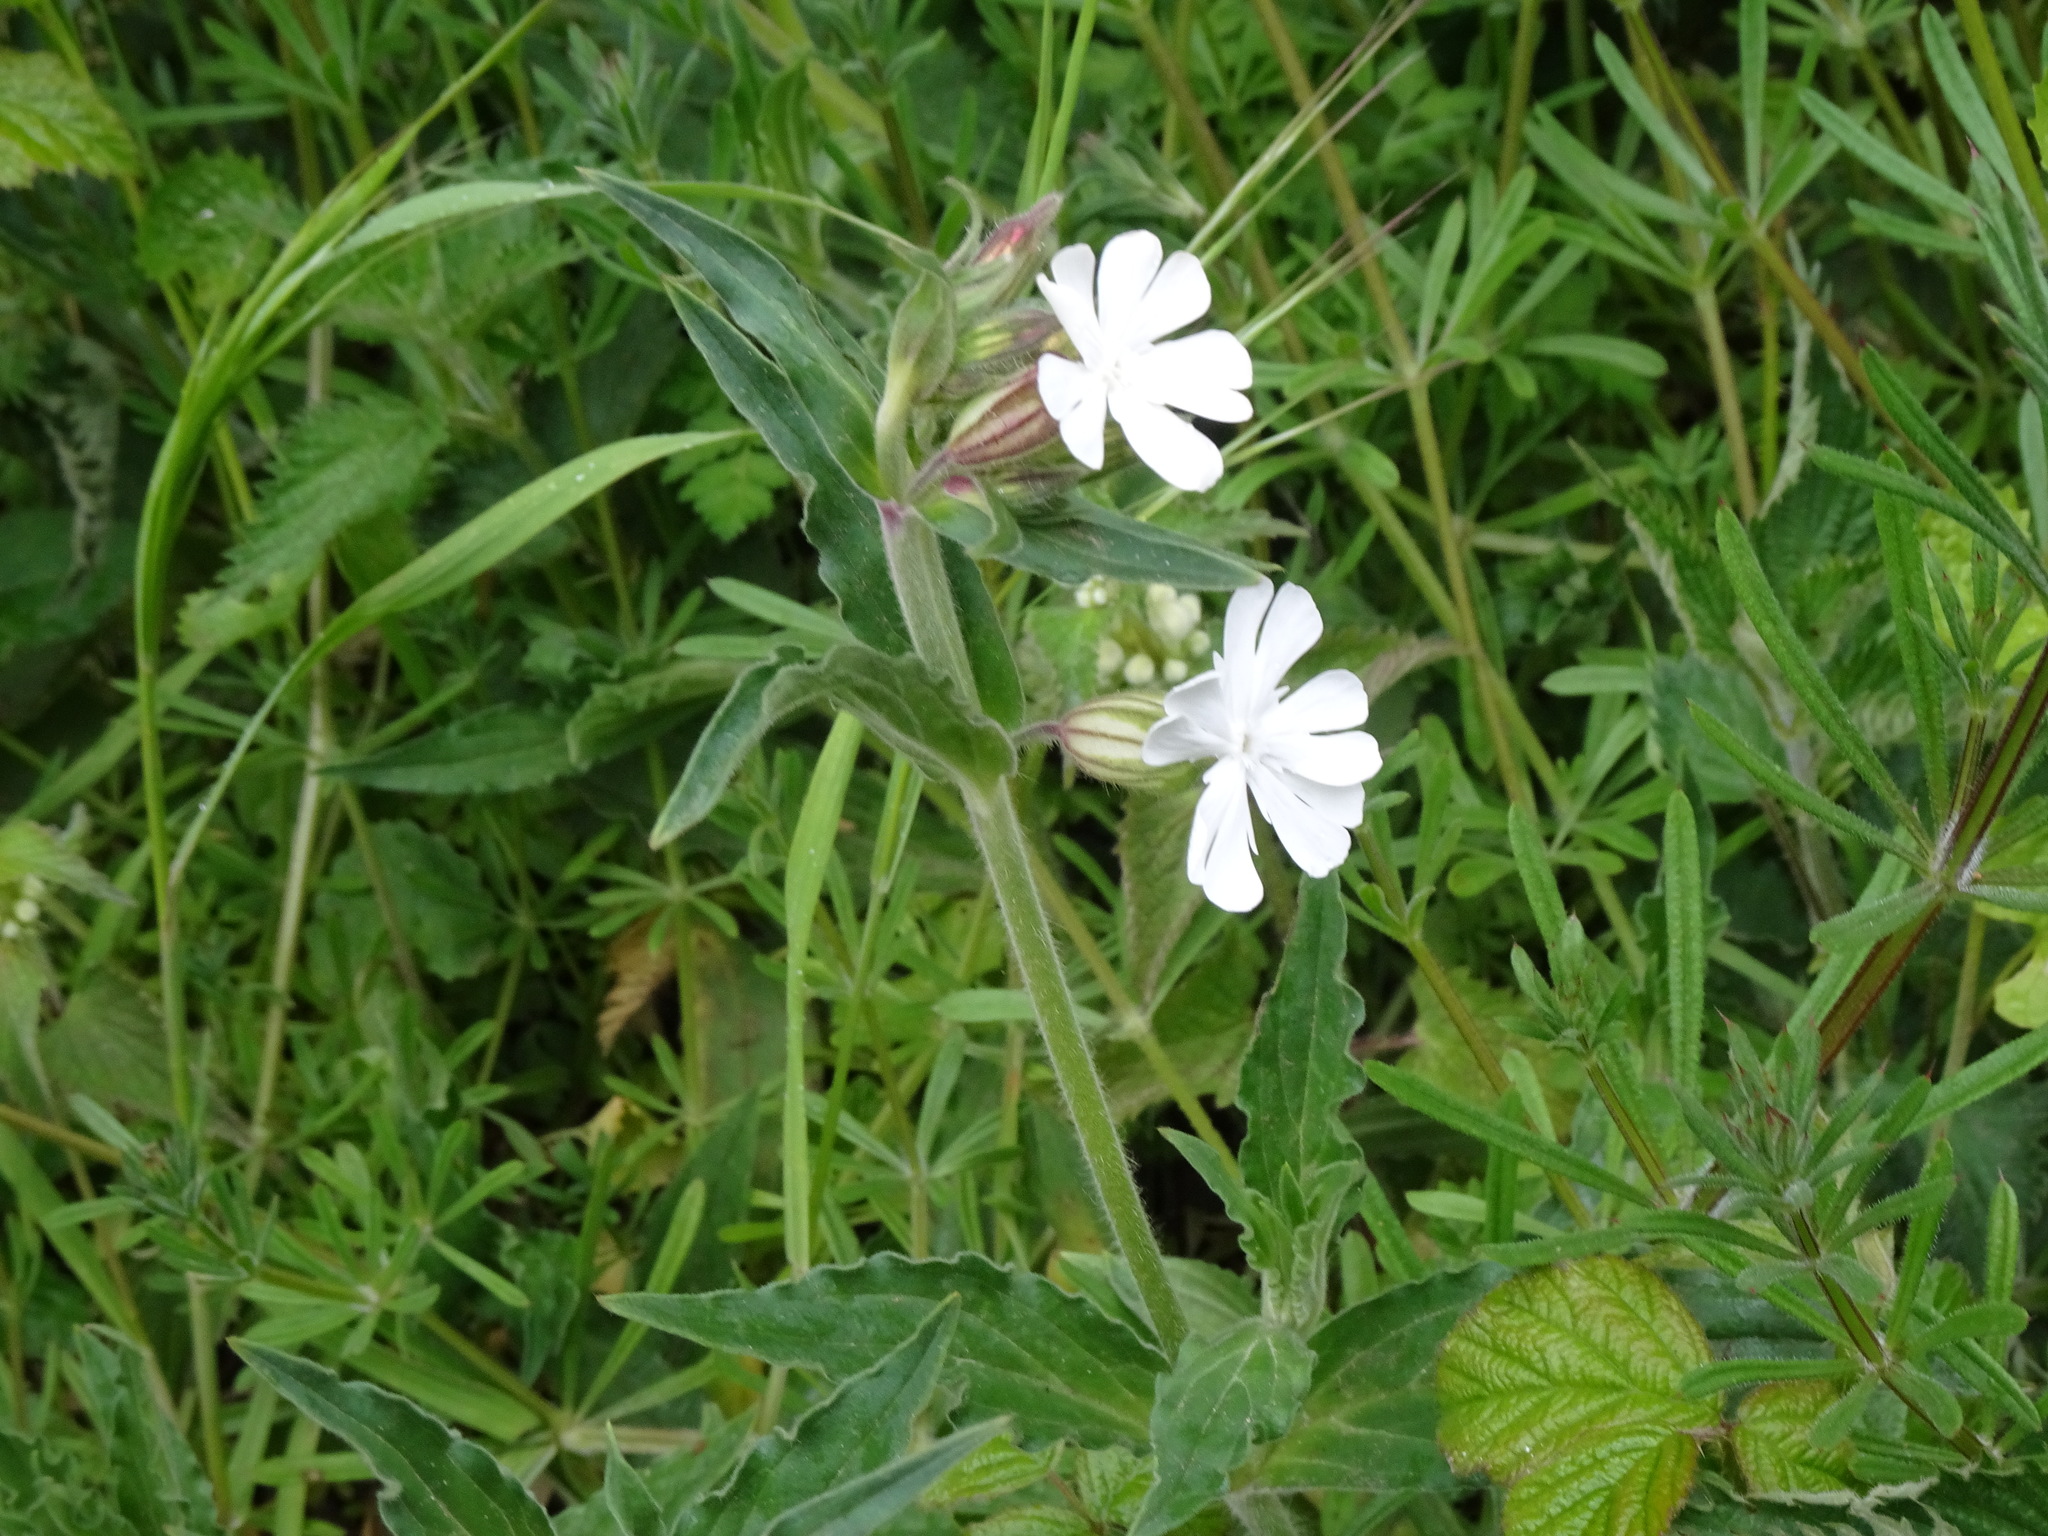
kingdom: Plantae
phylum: Tracheophyta
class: Magnoliopsida
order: Caryophyllales
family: Caryophyllaceae
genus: Silene
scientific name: Silene latifolia
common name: White campion
